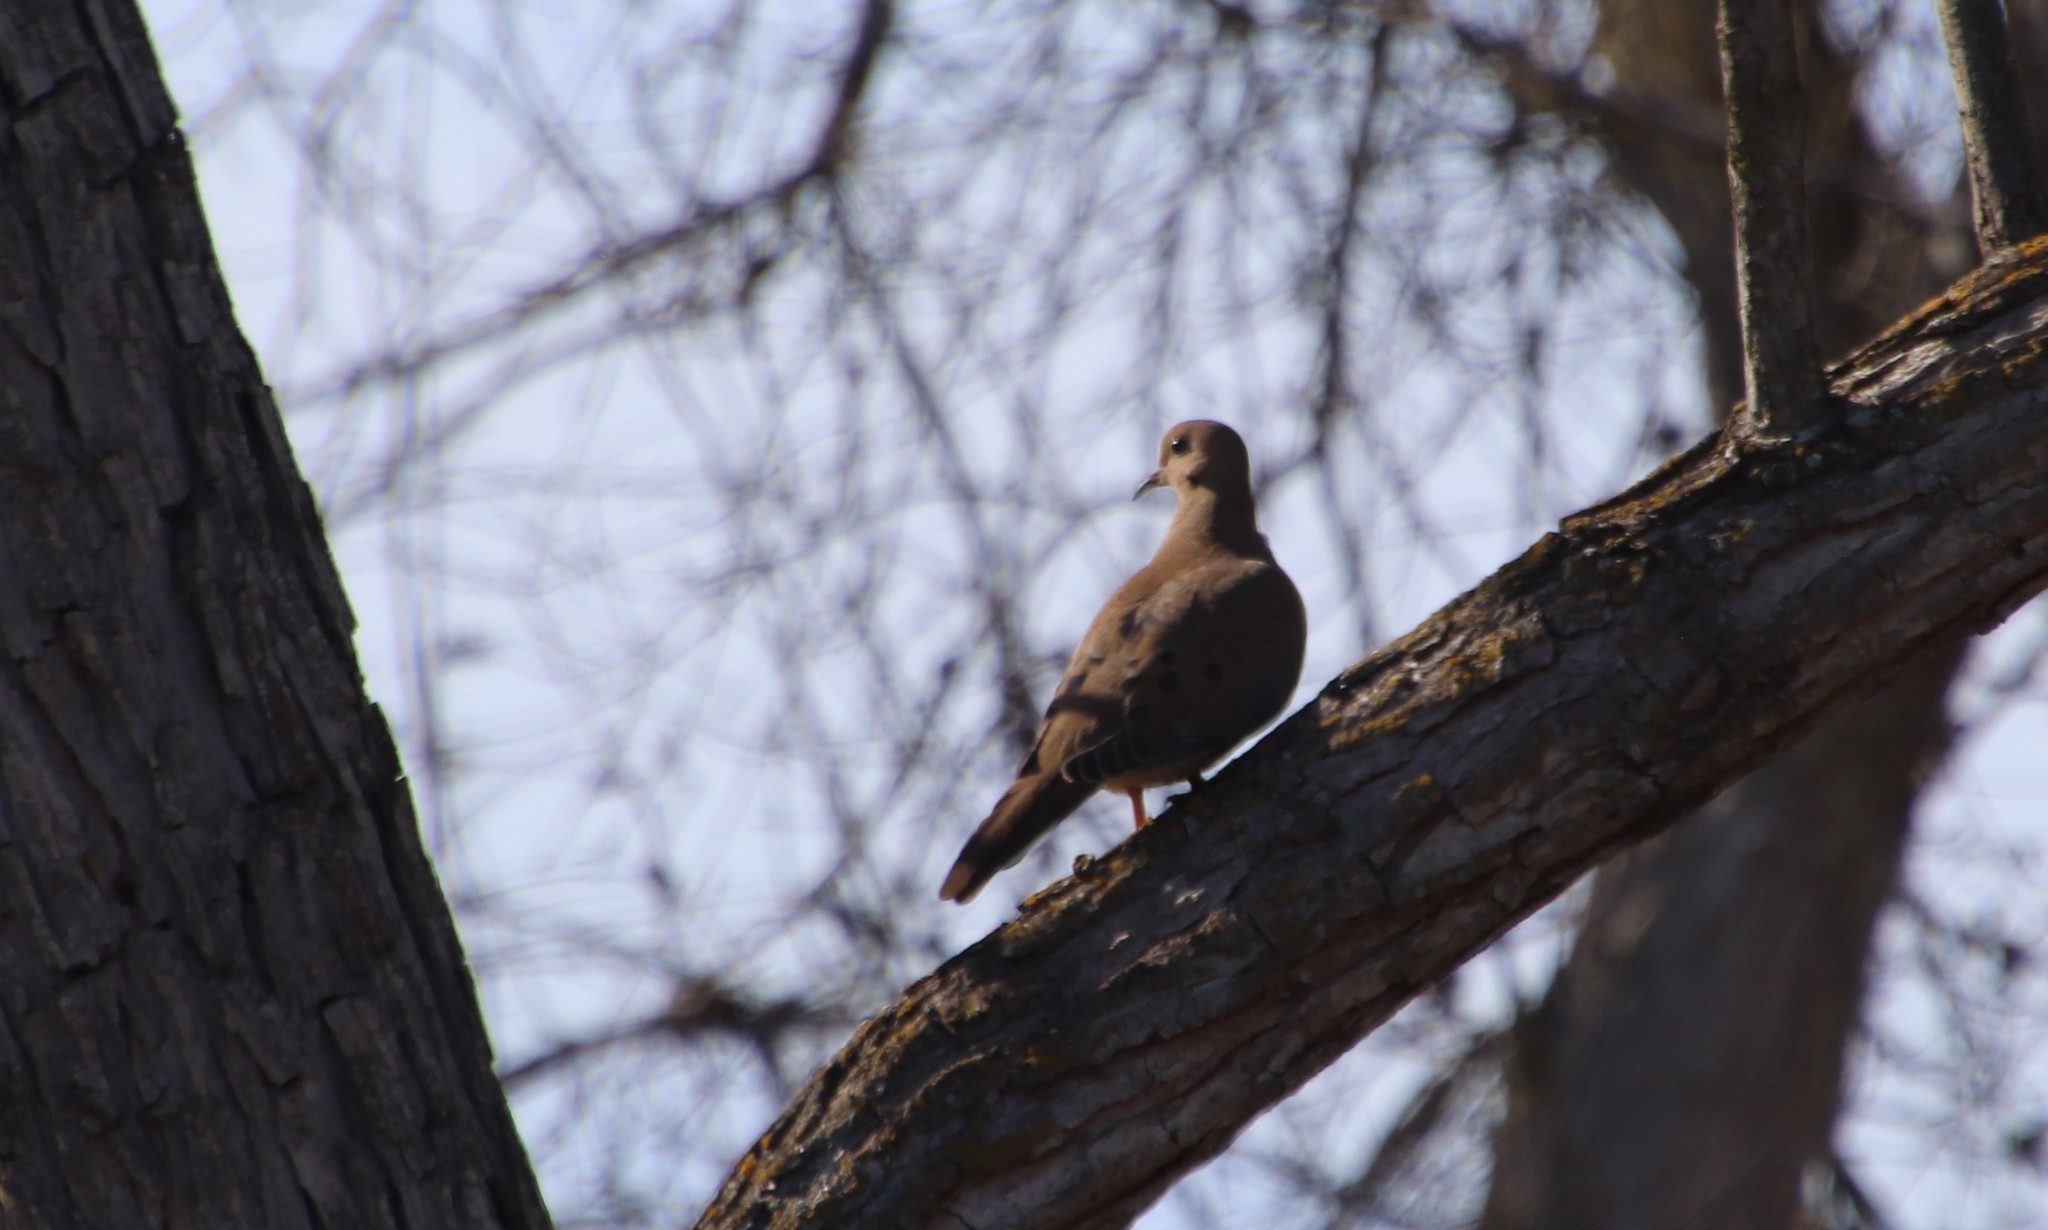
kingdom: Animalia
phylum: Chordata
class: Aves
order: Columbiformes
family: Columbidae
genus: Zenaida
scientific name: Zenaida macroura
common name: Mourning dove
